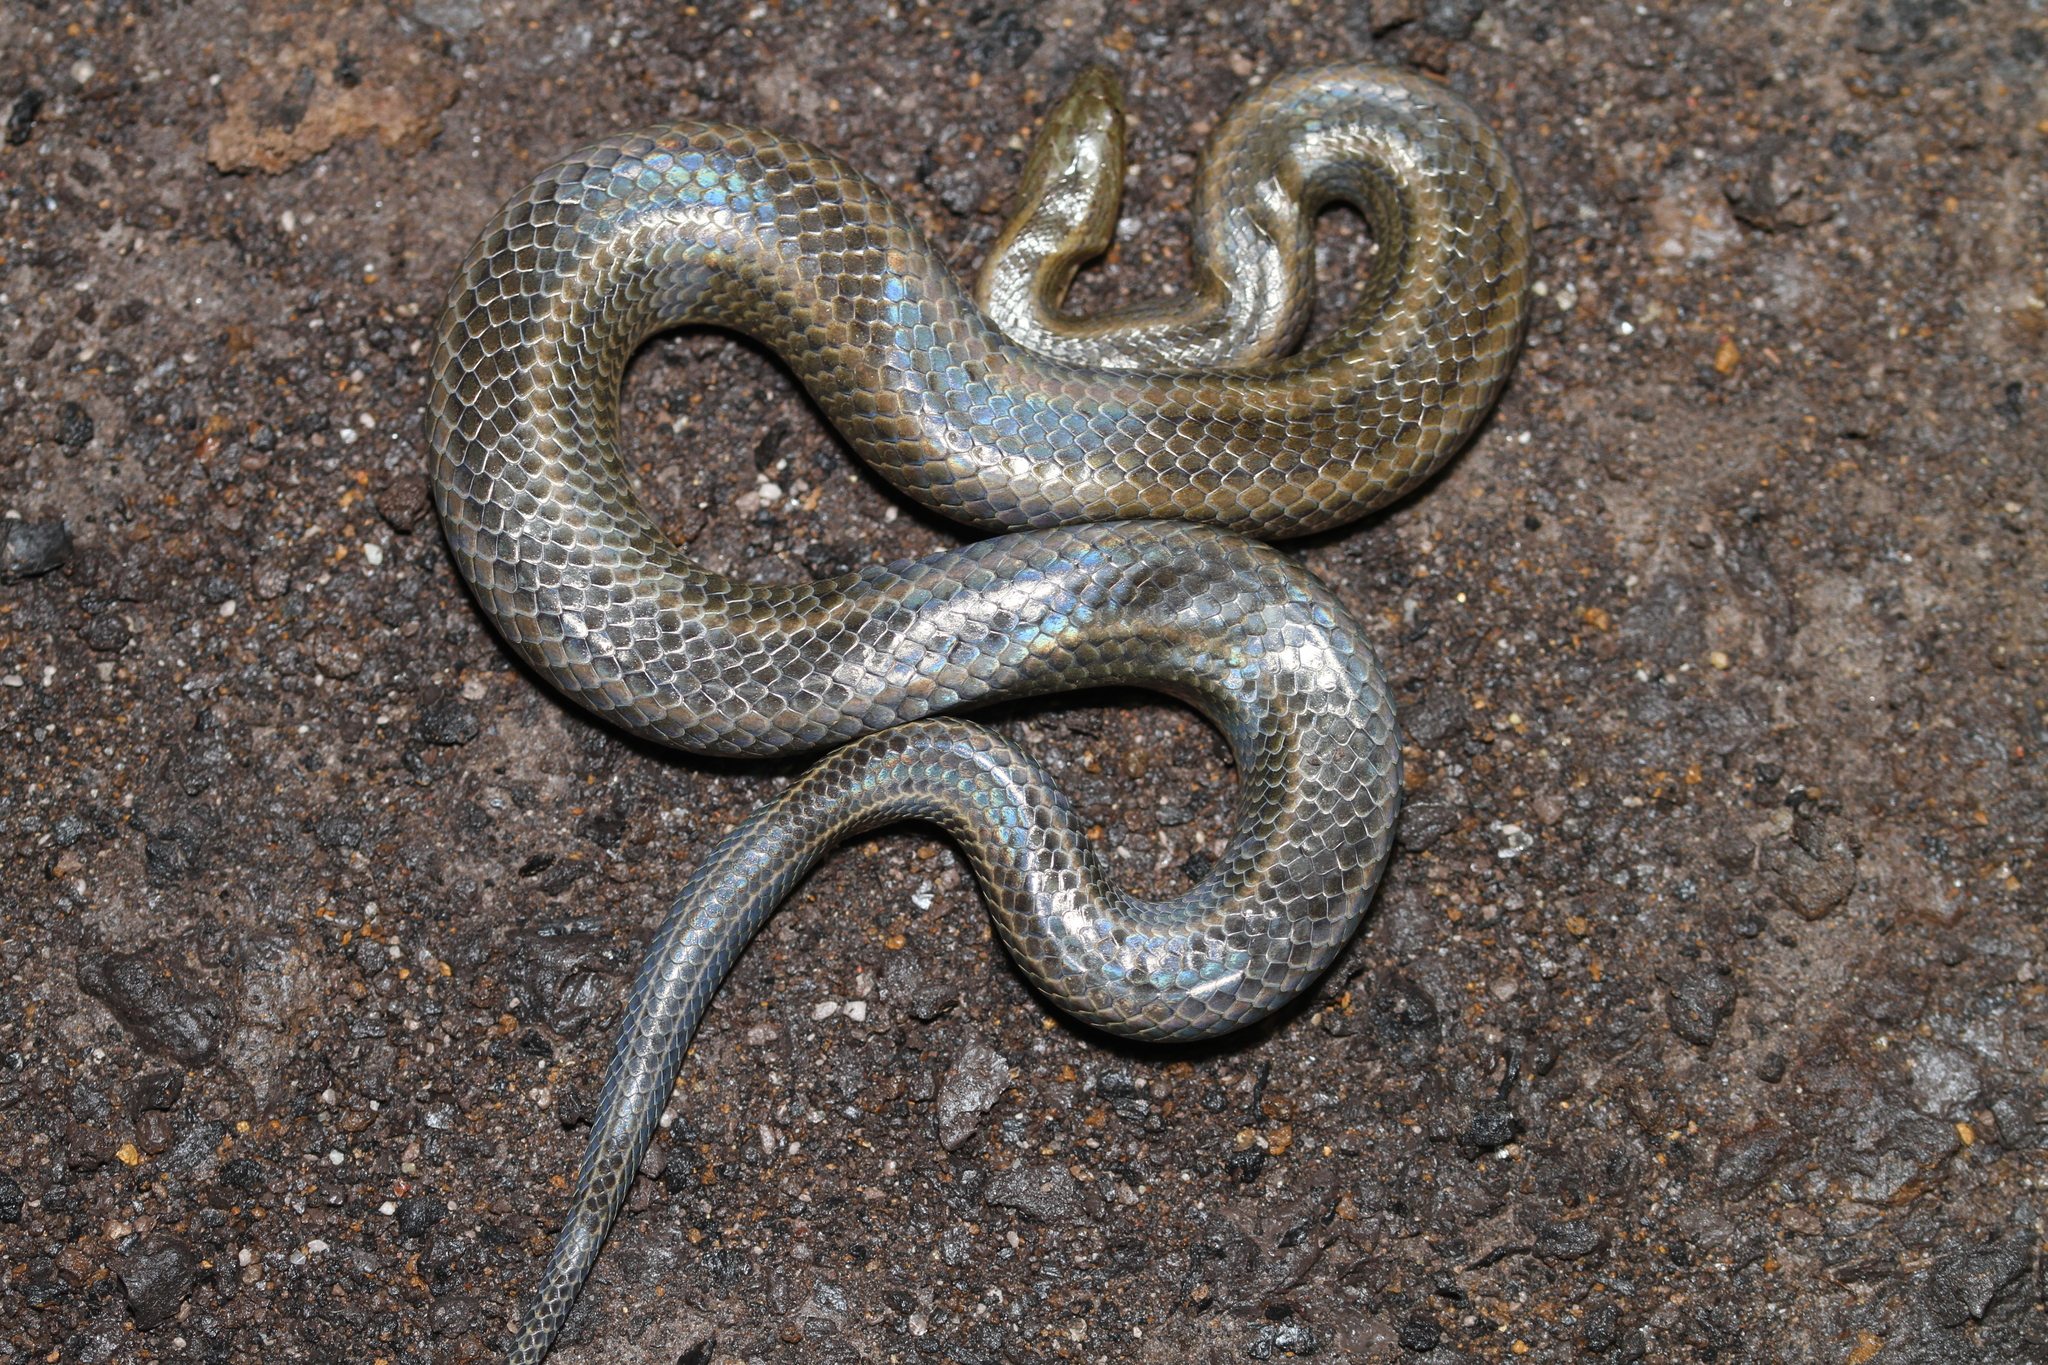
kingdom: Animalia
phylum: Chordata
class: Squamata
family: Homalopsidae
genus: Enhydris
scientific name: Enhydris enhydris
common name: Rainbow water snake
